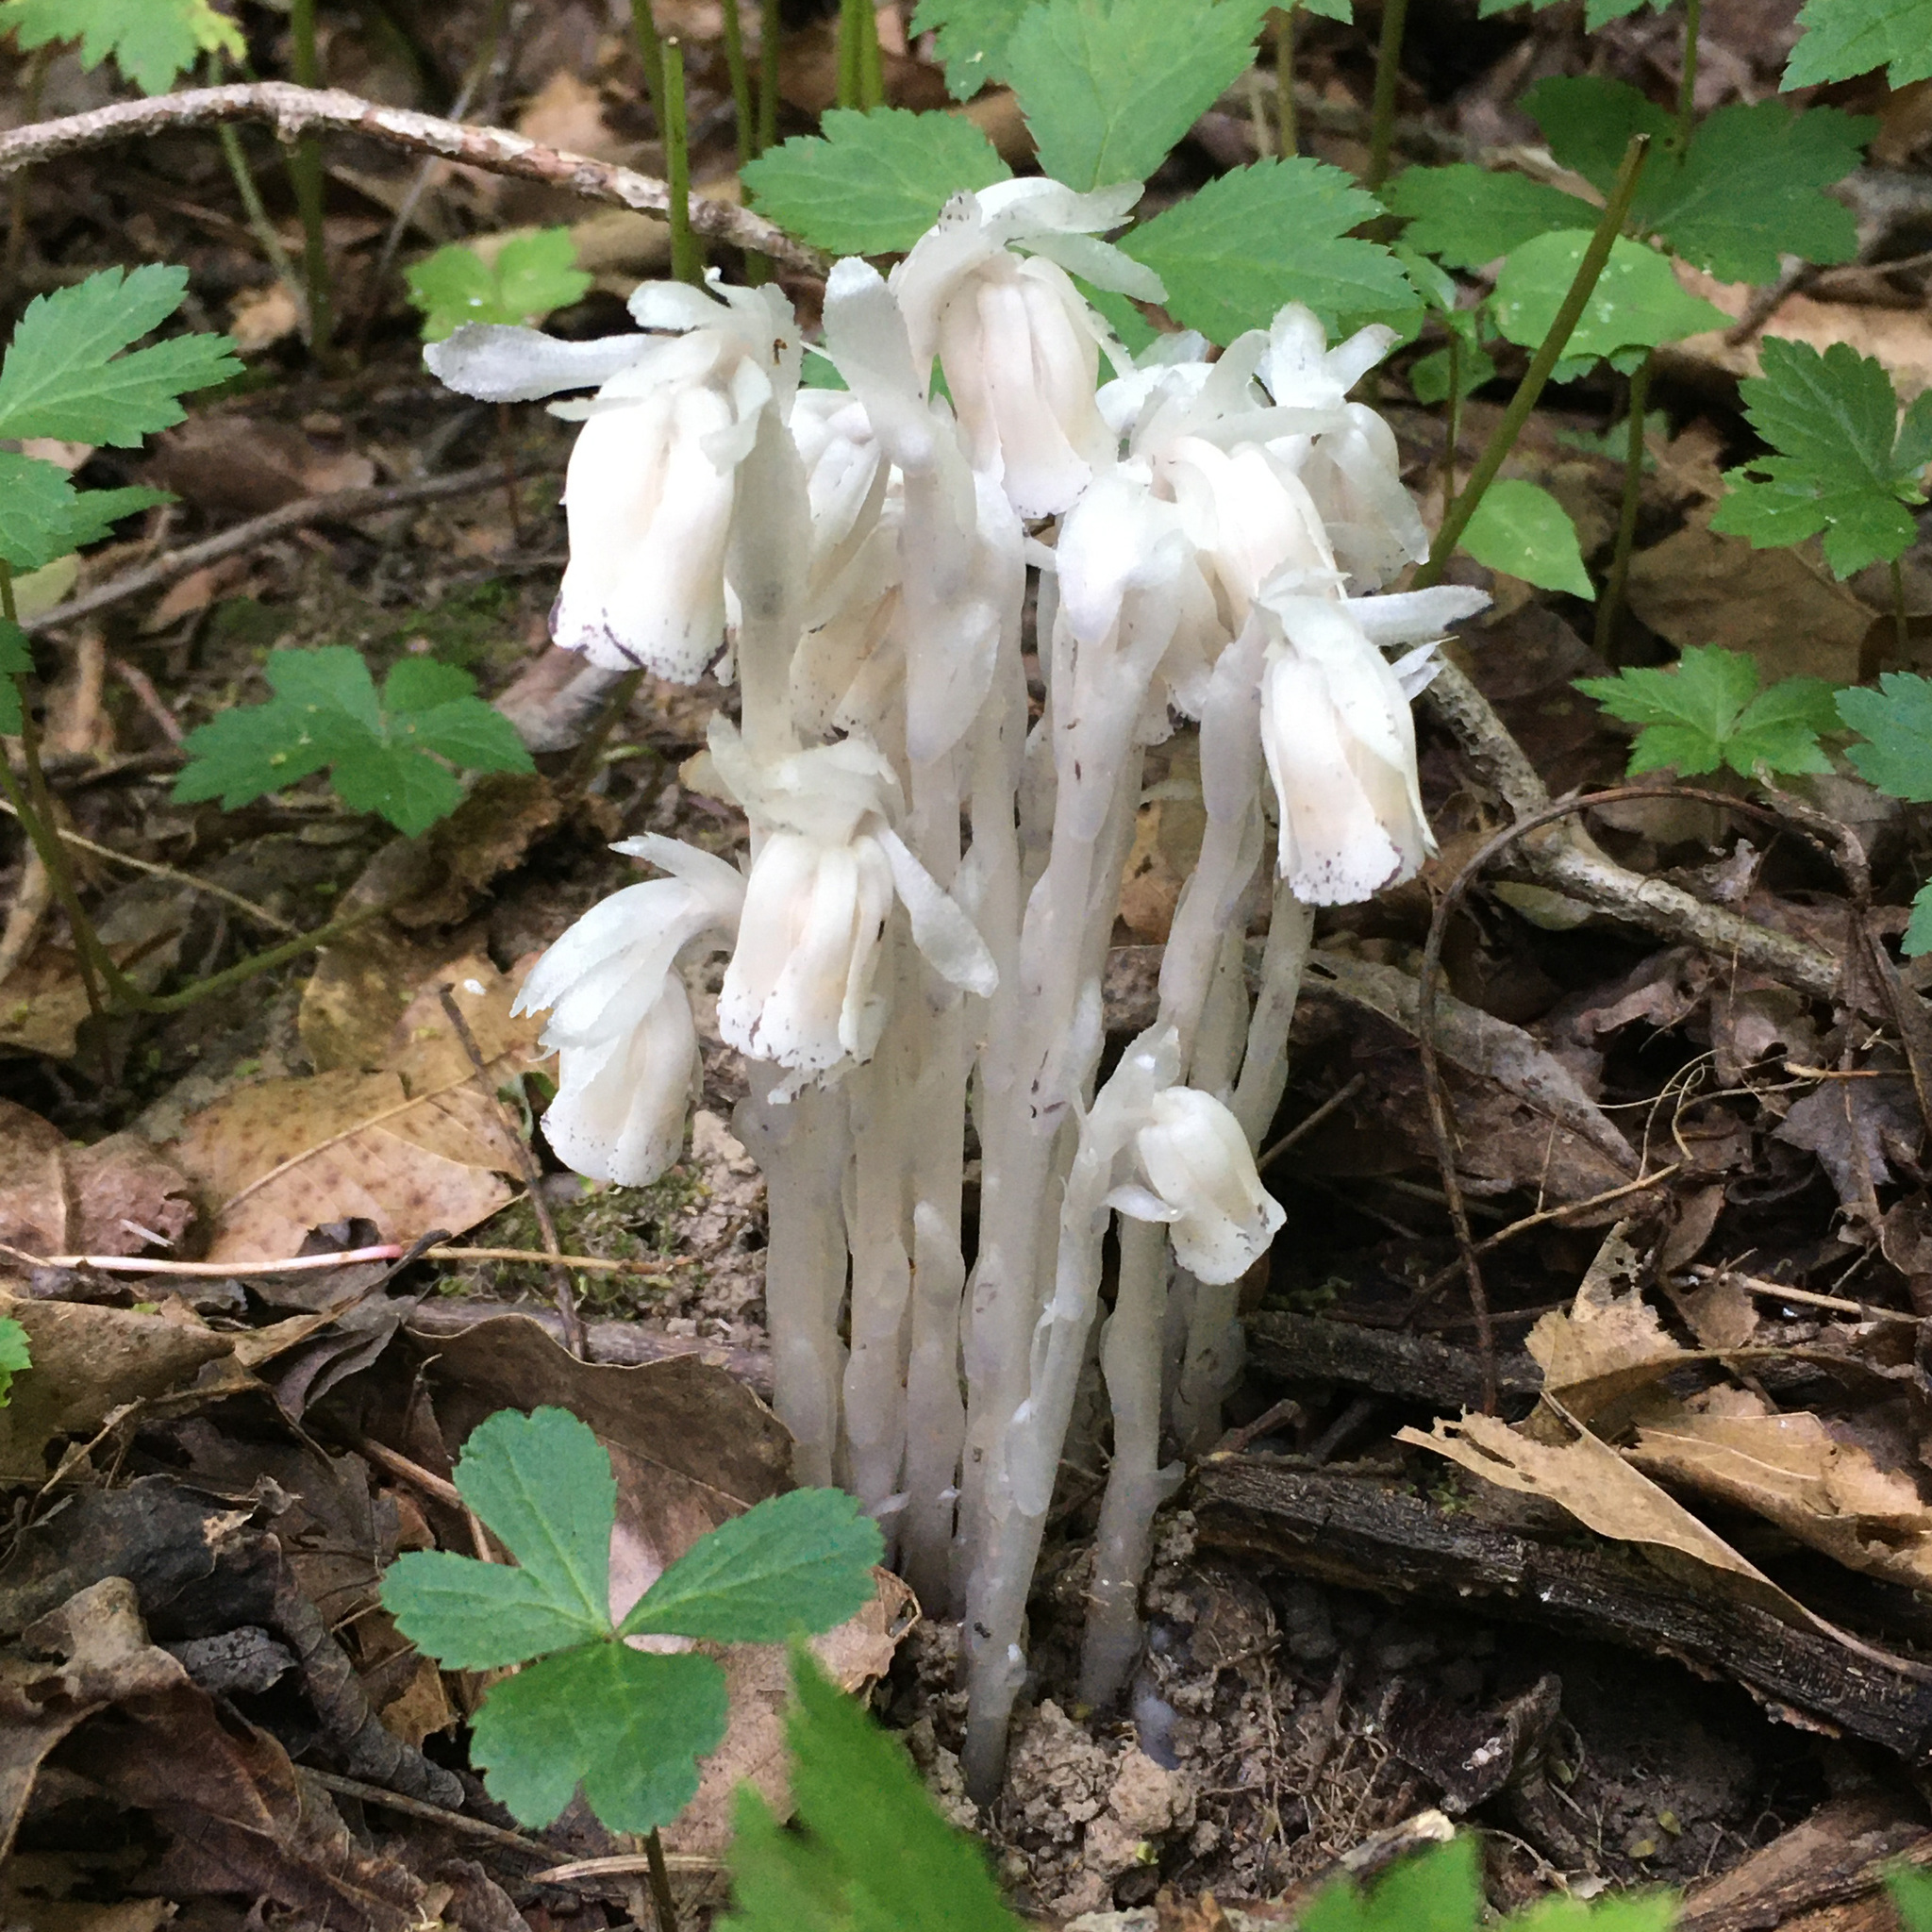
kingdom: Plantae
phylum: Tracheophyta
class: Magnoliopsida
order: Ericales
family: Ericaceae
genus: Monotropa
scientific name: Monotropa uniflora
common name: Convulsion root
